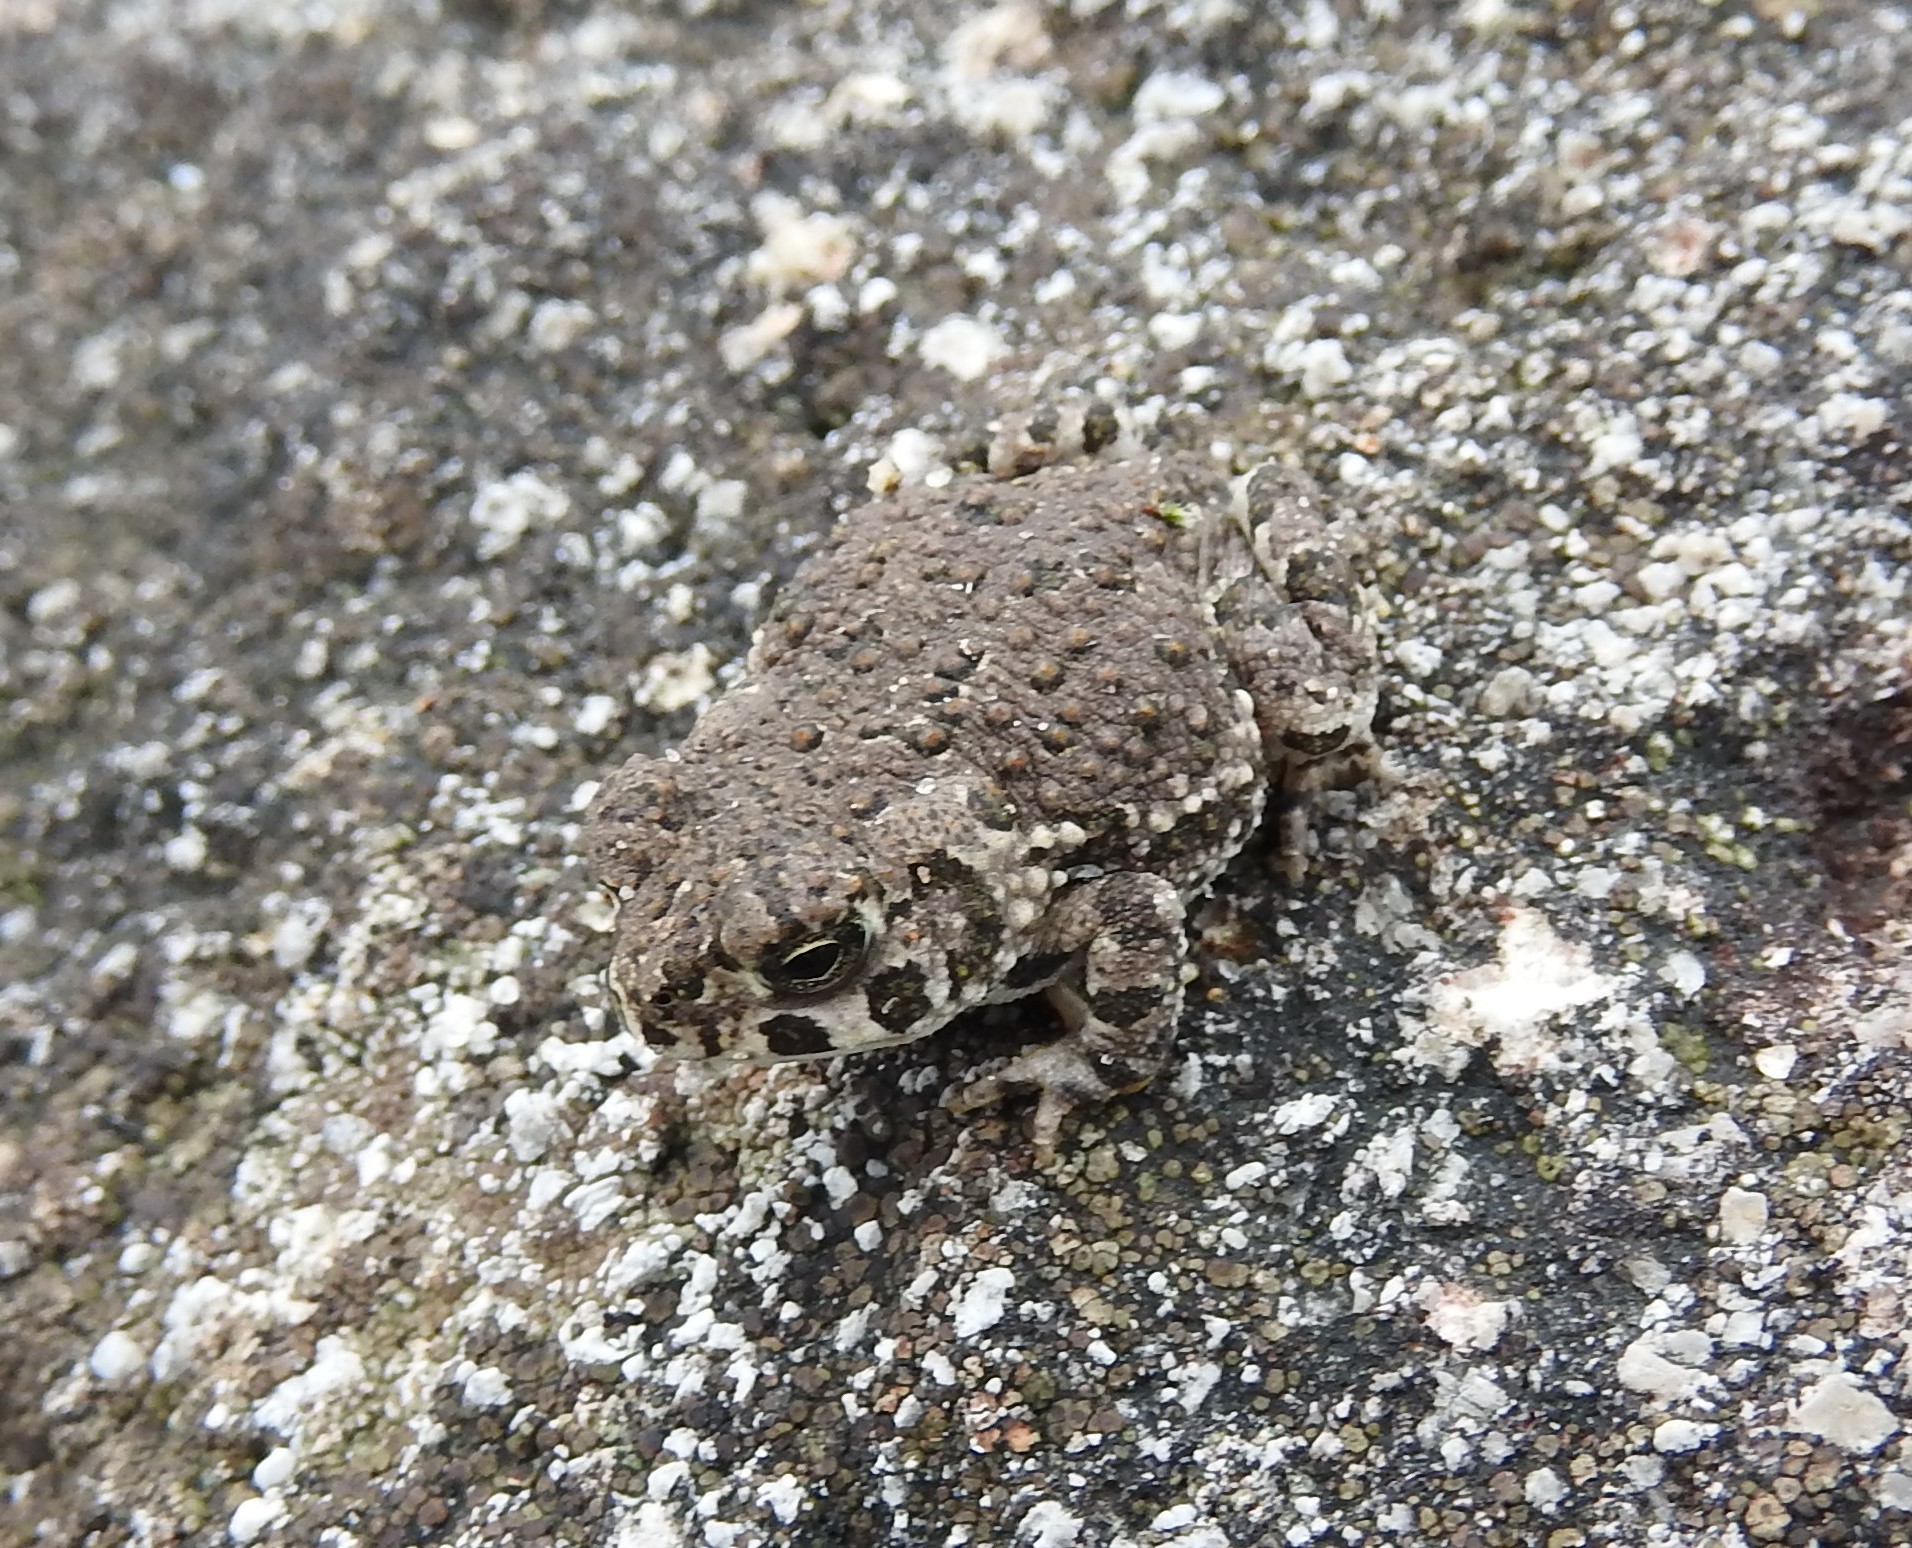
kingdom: Animalia
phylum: Chordata
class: Amphibia
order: Anura
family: Bufonidae
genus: Anaxyrus
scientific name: Anaxyrus compactilis
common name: Plateau toad
